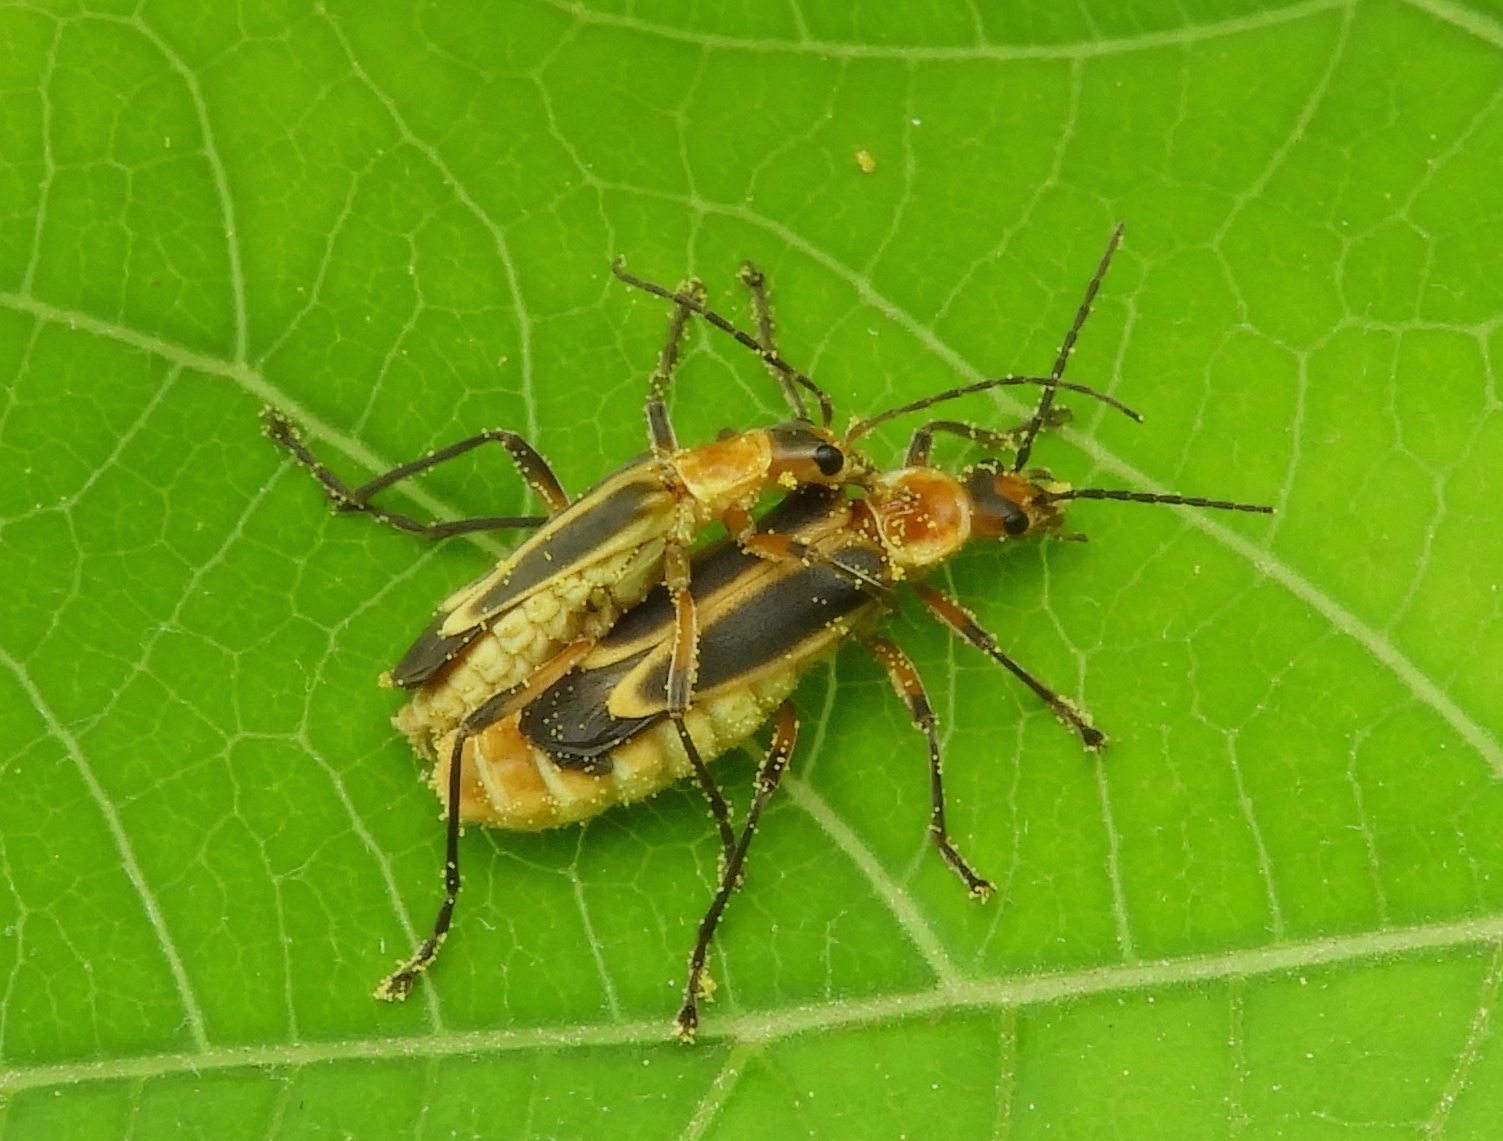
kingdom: Animalia
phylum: Arthropoda
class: Insecta
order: Coleoptera
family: Cantharidae
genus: Chauliognathus
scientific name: Chauliognathus
